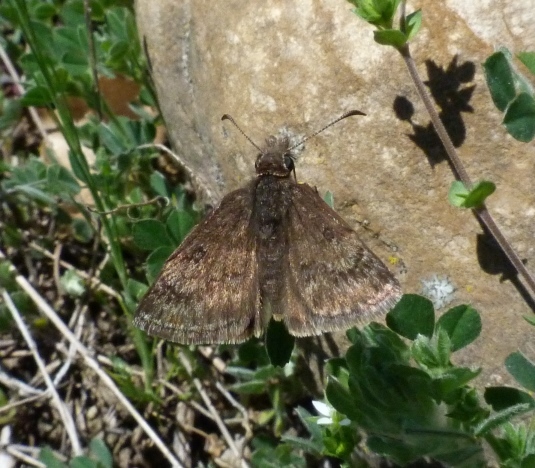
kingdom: Animalia
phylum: Arthropoda
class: Insecta
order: Lepidoptera
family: Hesperiidae
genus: Erynnis
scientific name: Erynnis tages
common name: Dingy skipper
